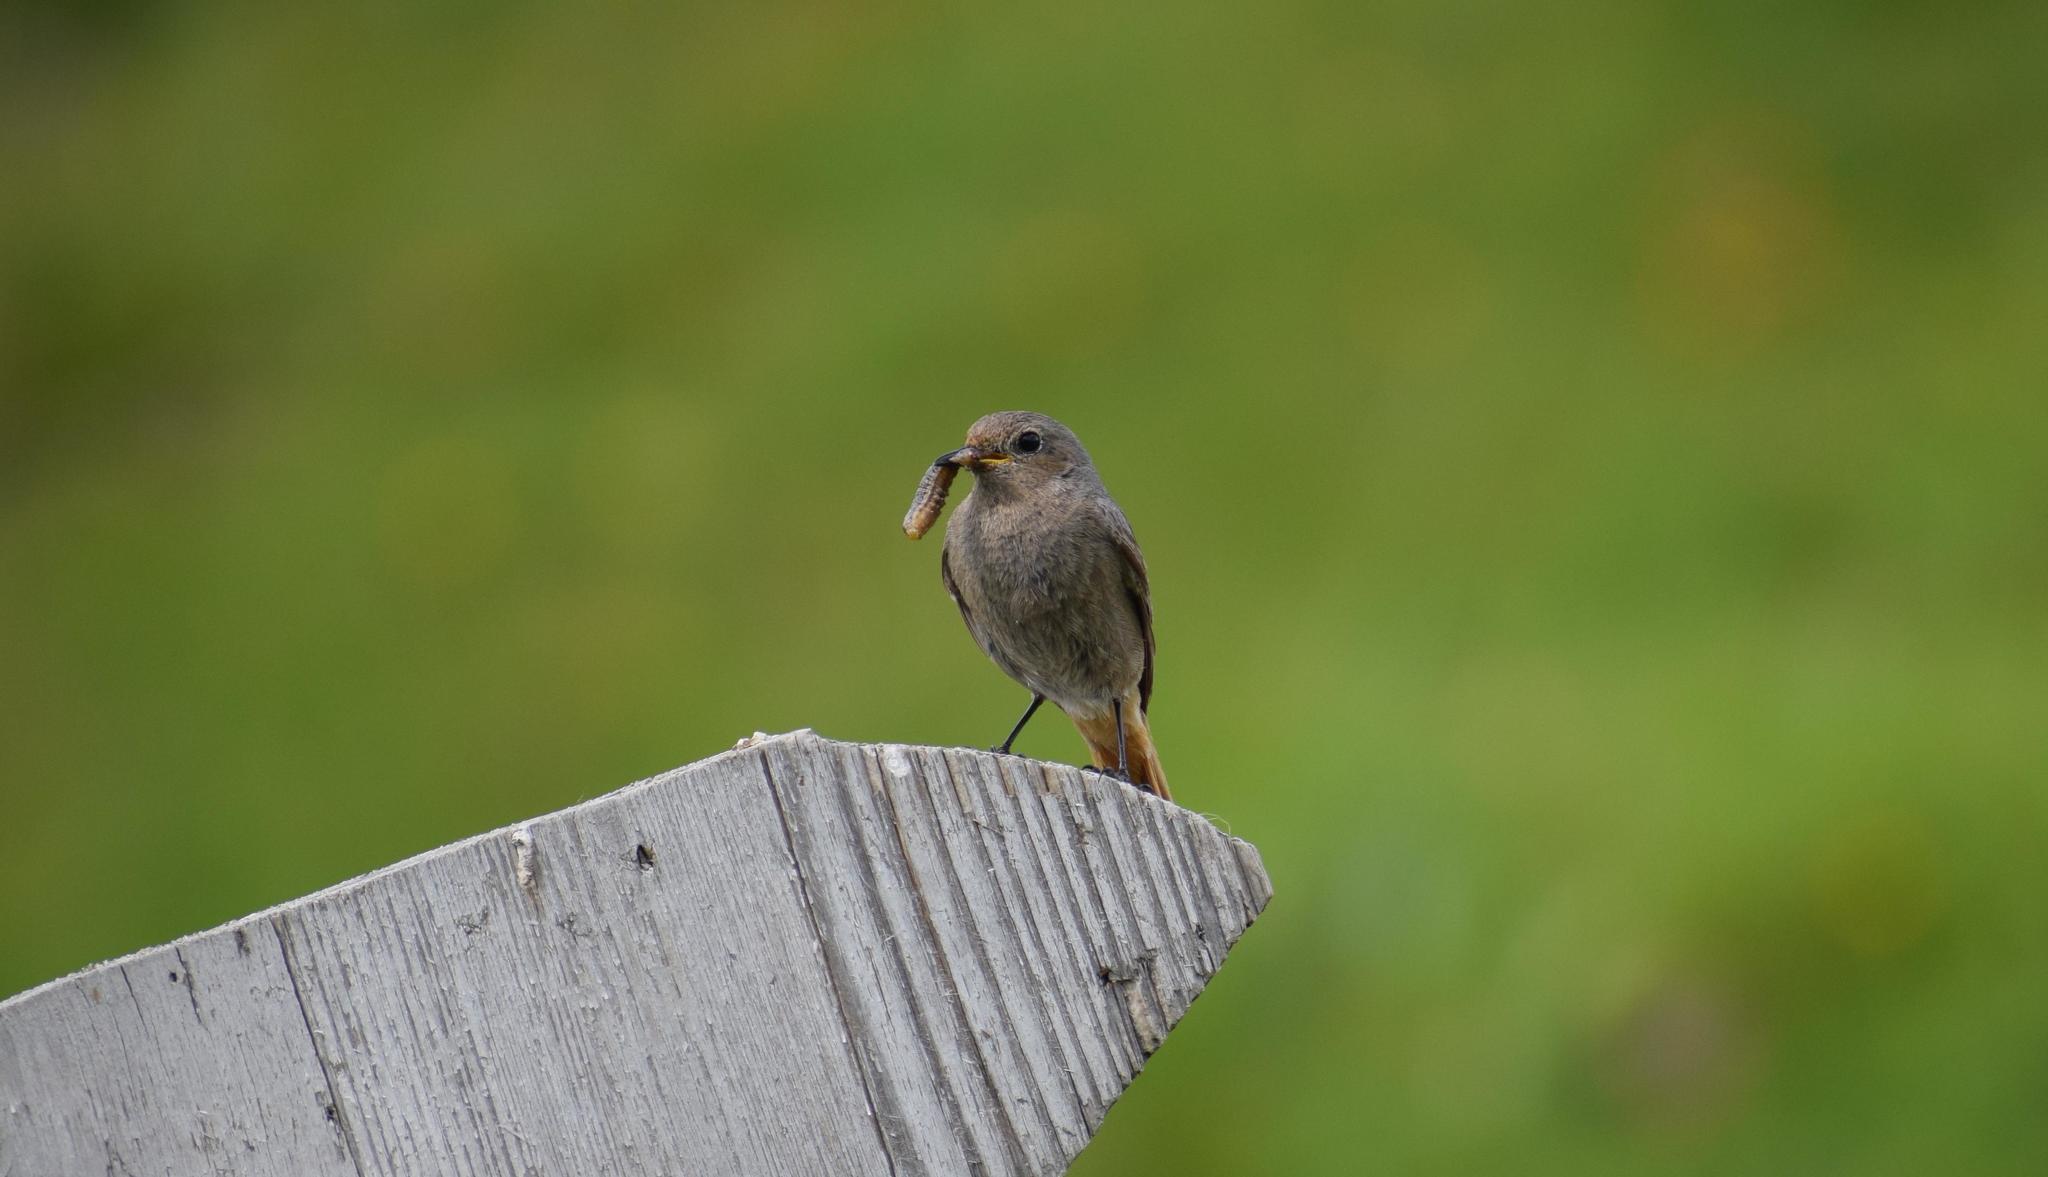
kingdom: Animalia
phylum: Chordata
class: Aves
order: Passeriformes
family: Muscicapidae
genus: Phoenicurus
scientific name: Phoenicurus ochruros
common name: Black redstart
